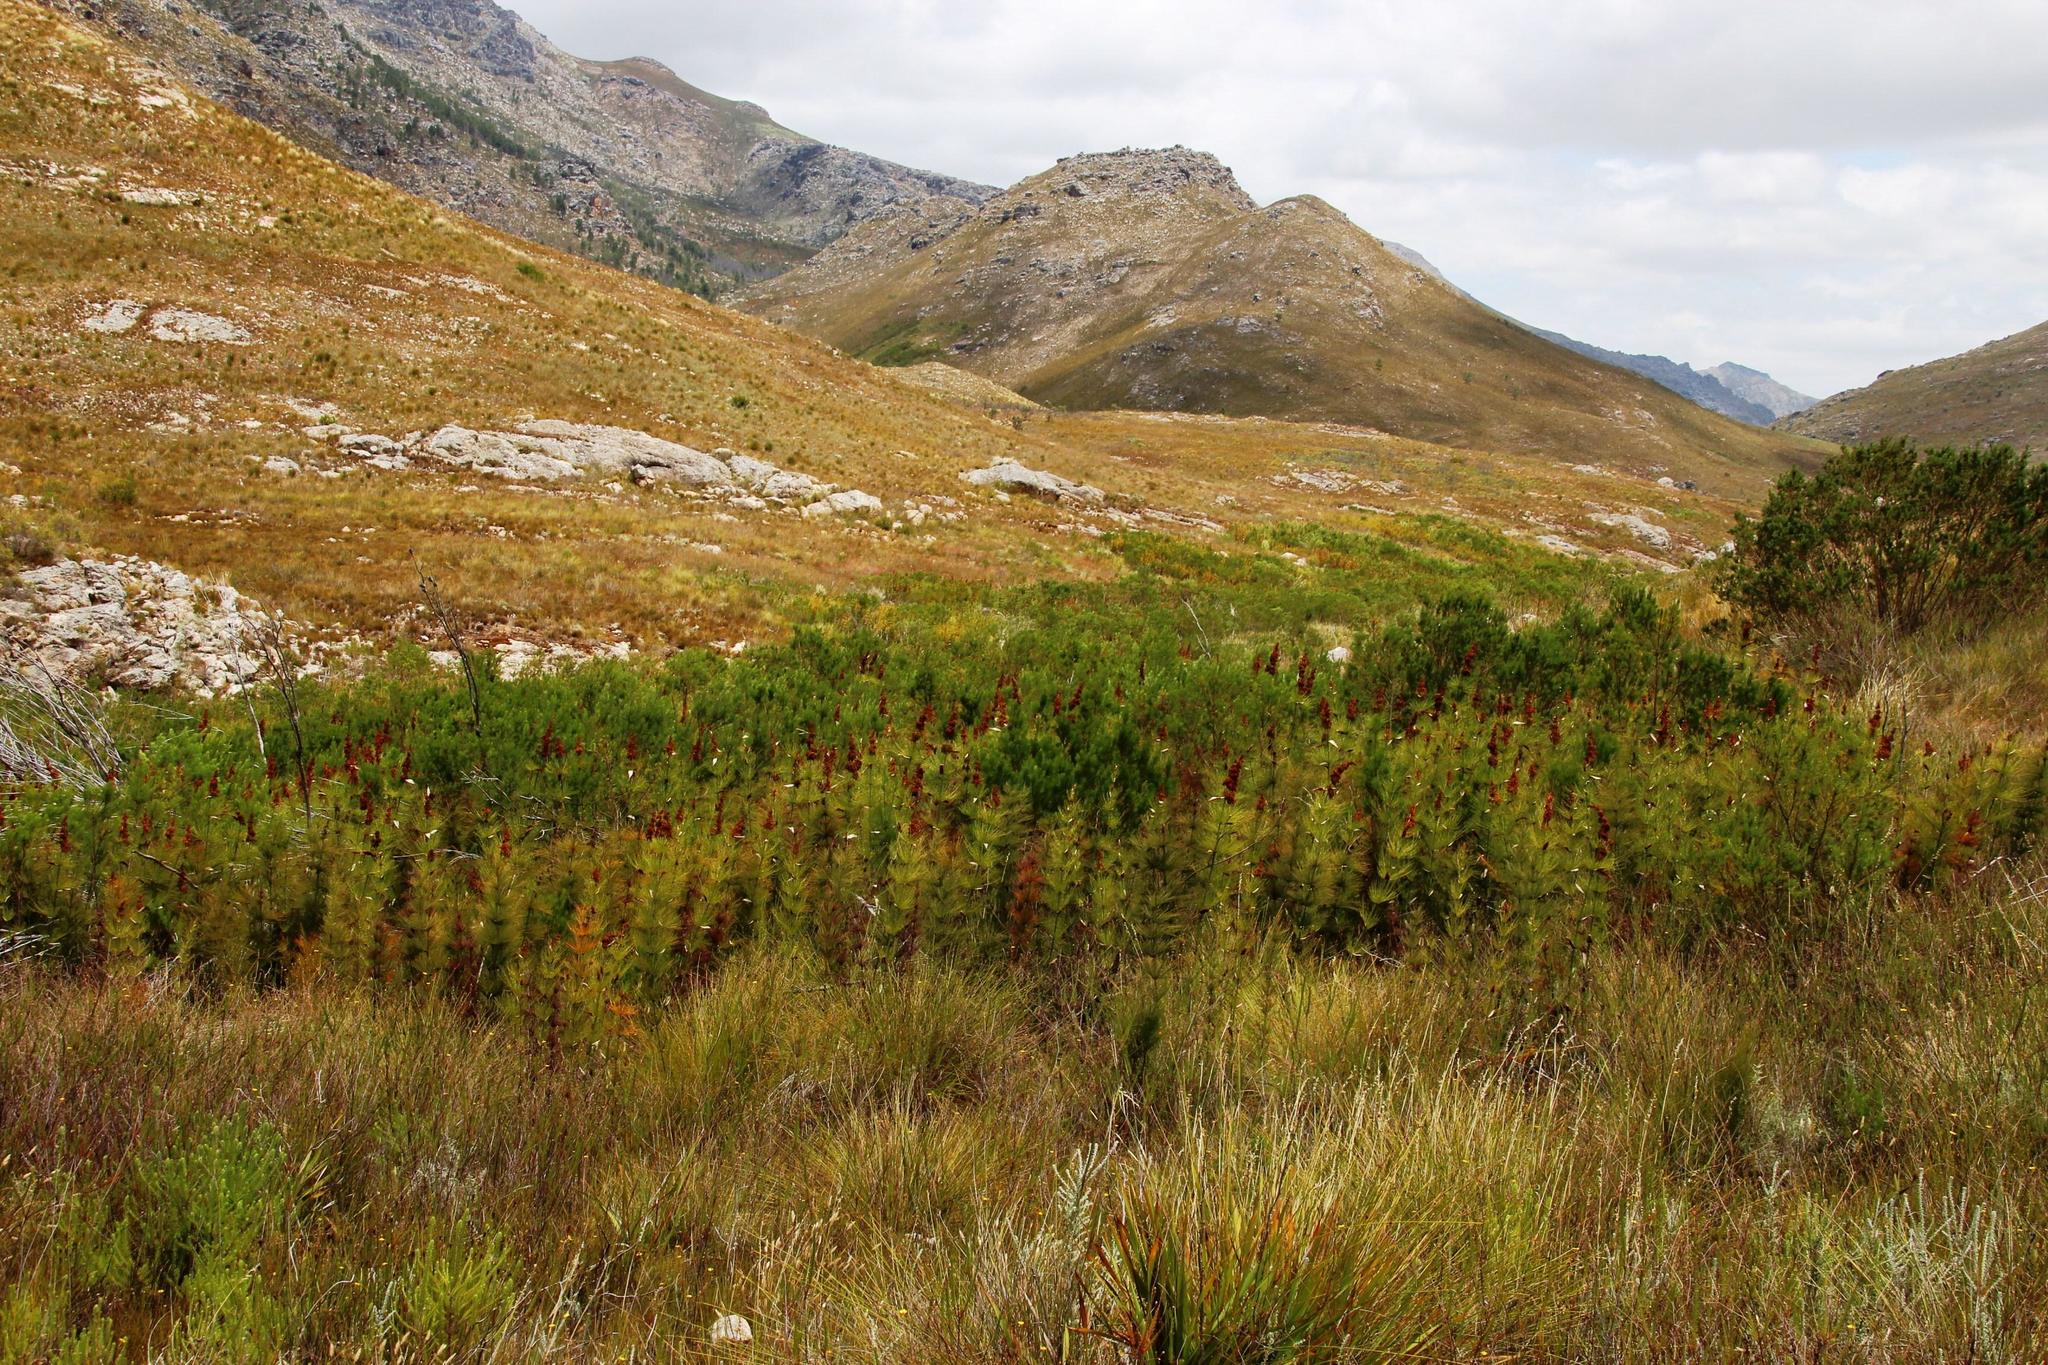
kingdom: Plantae
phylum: Tracheophyta
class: Liliopsida
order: Poales
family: Restionaceae
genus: Elegia
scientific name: Elegia capensis
